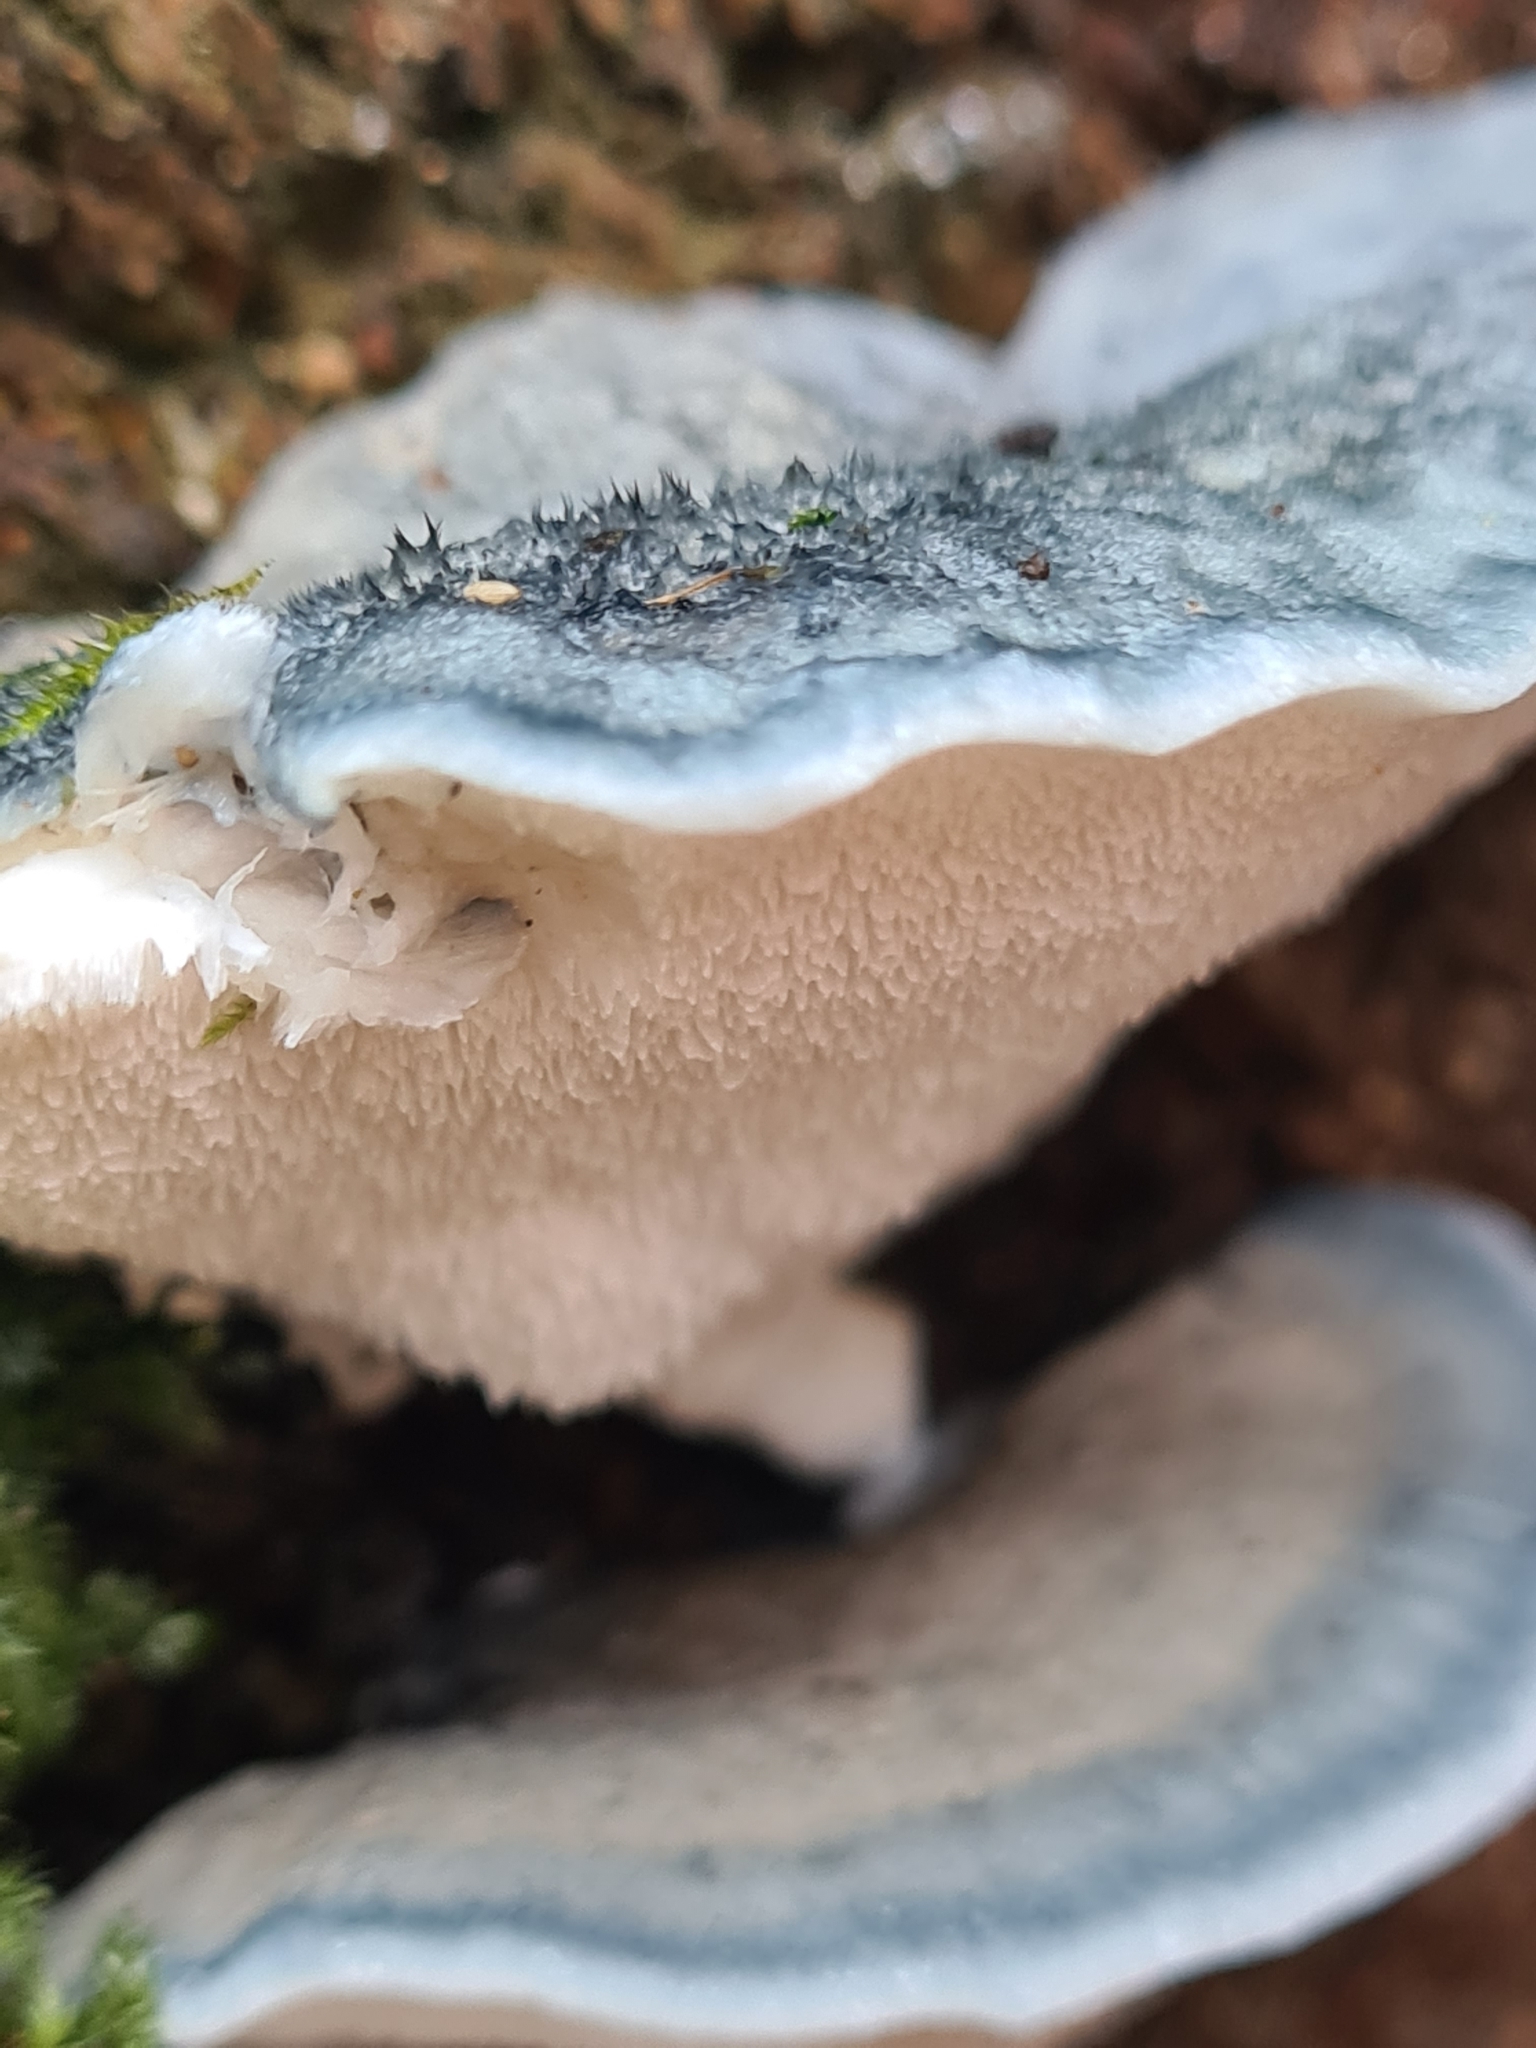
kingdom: Fungi
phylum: Basidiomycota
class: Agaricomycetes
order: Polyporales
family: Polyporaceae
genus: Cyanosporus
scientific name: Cyanosporus caesius
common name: Blue cheese polypore
